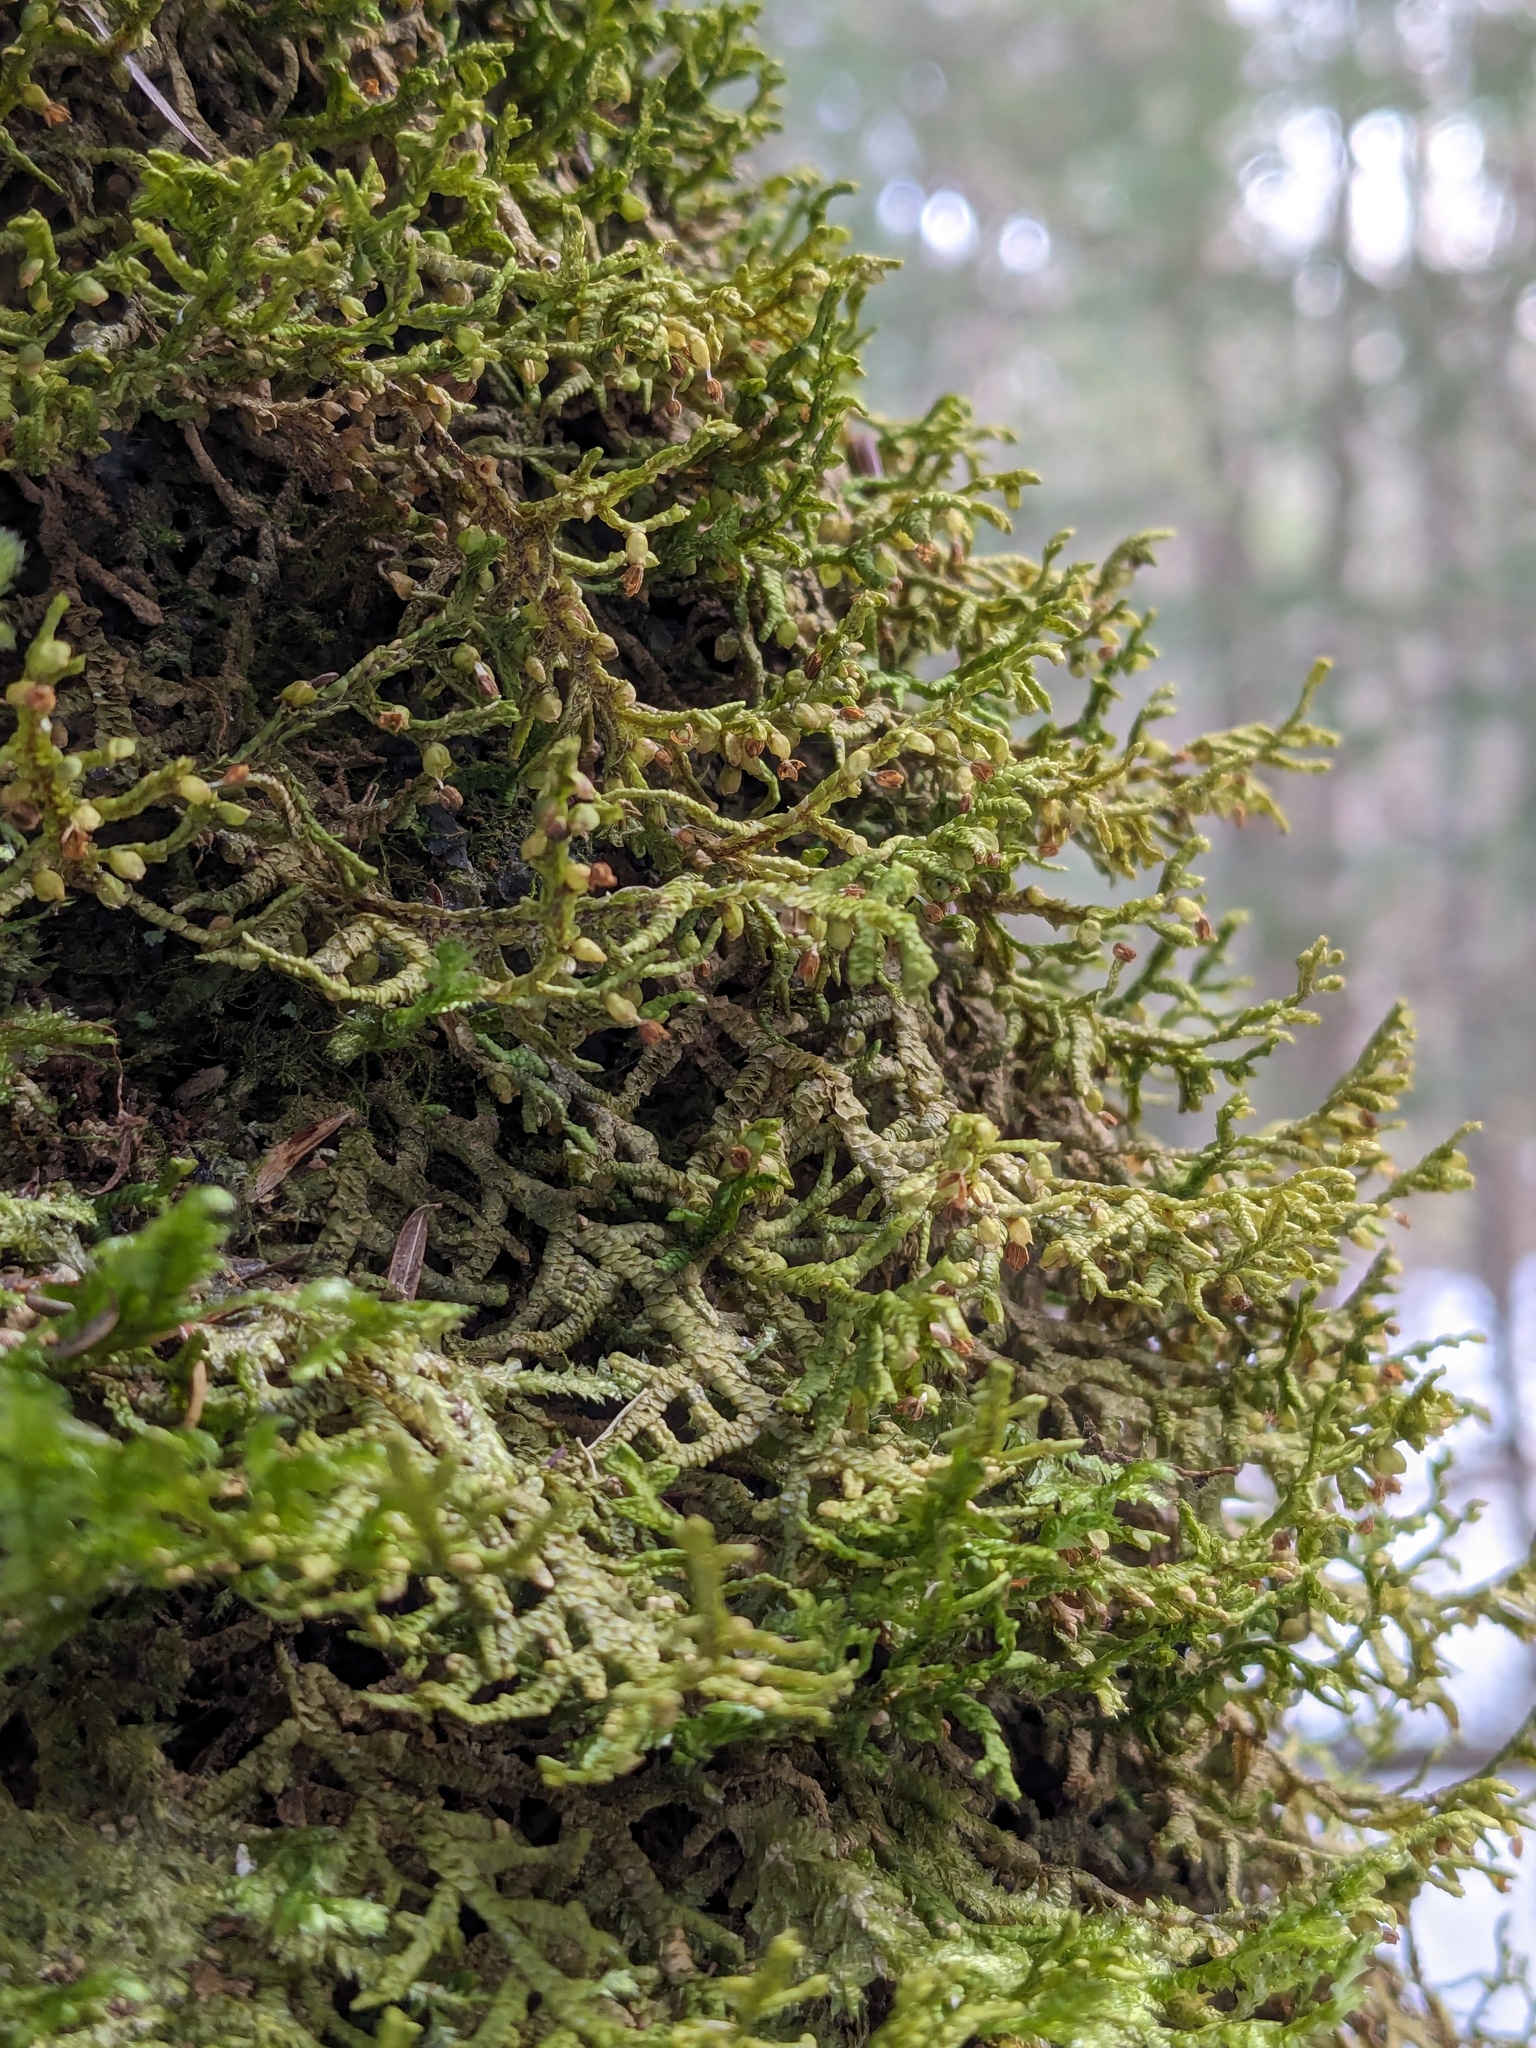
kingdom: Plantae
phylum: Marchantiophyta
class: Jungermanniopsida
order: Porellales
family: Porellaceae
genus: Porella
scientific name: Porella platyphylla
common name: Wall scalewort
